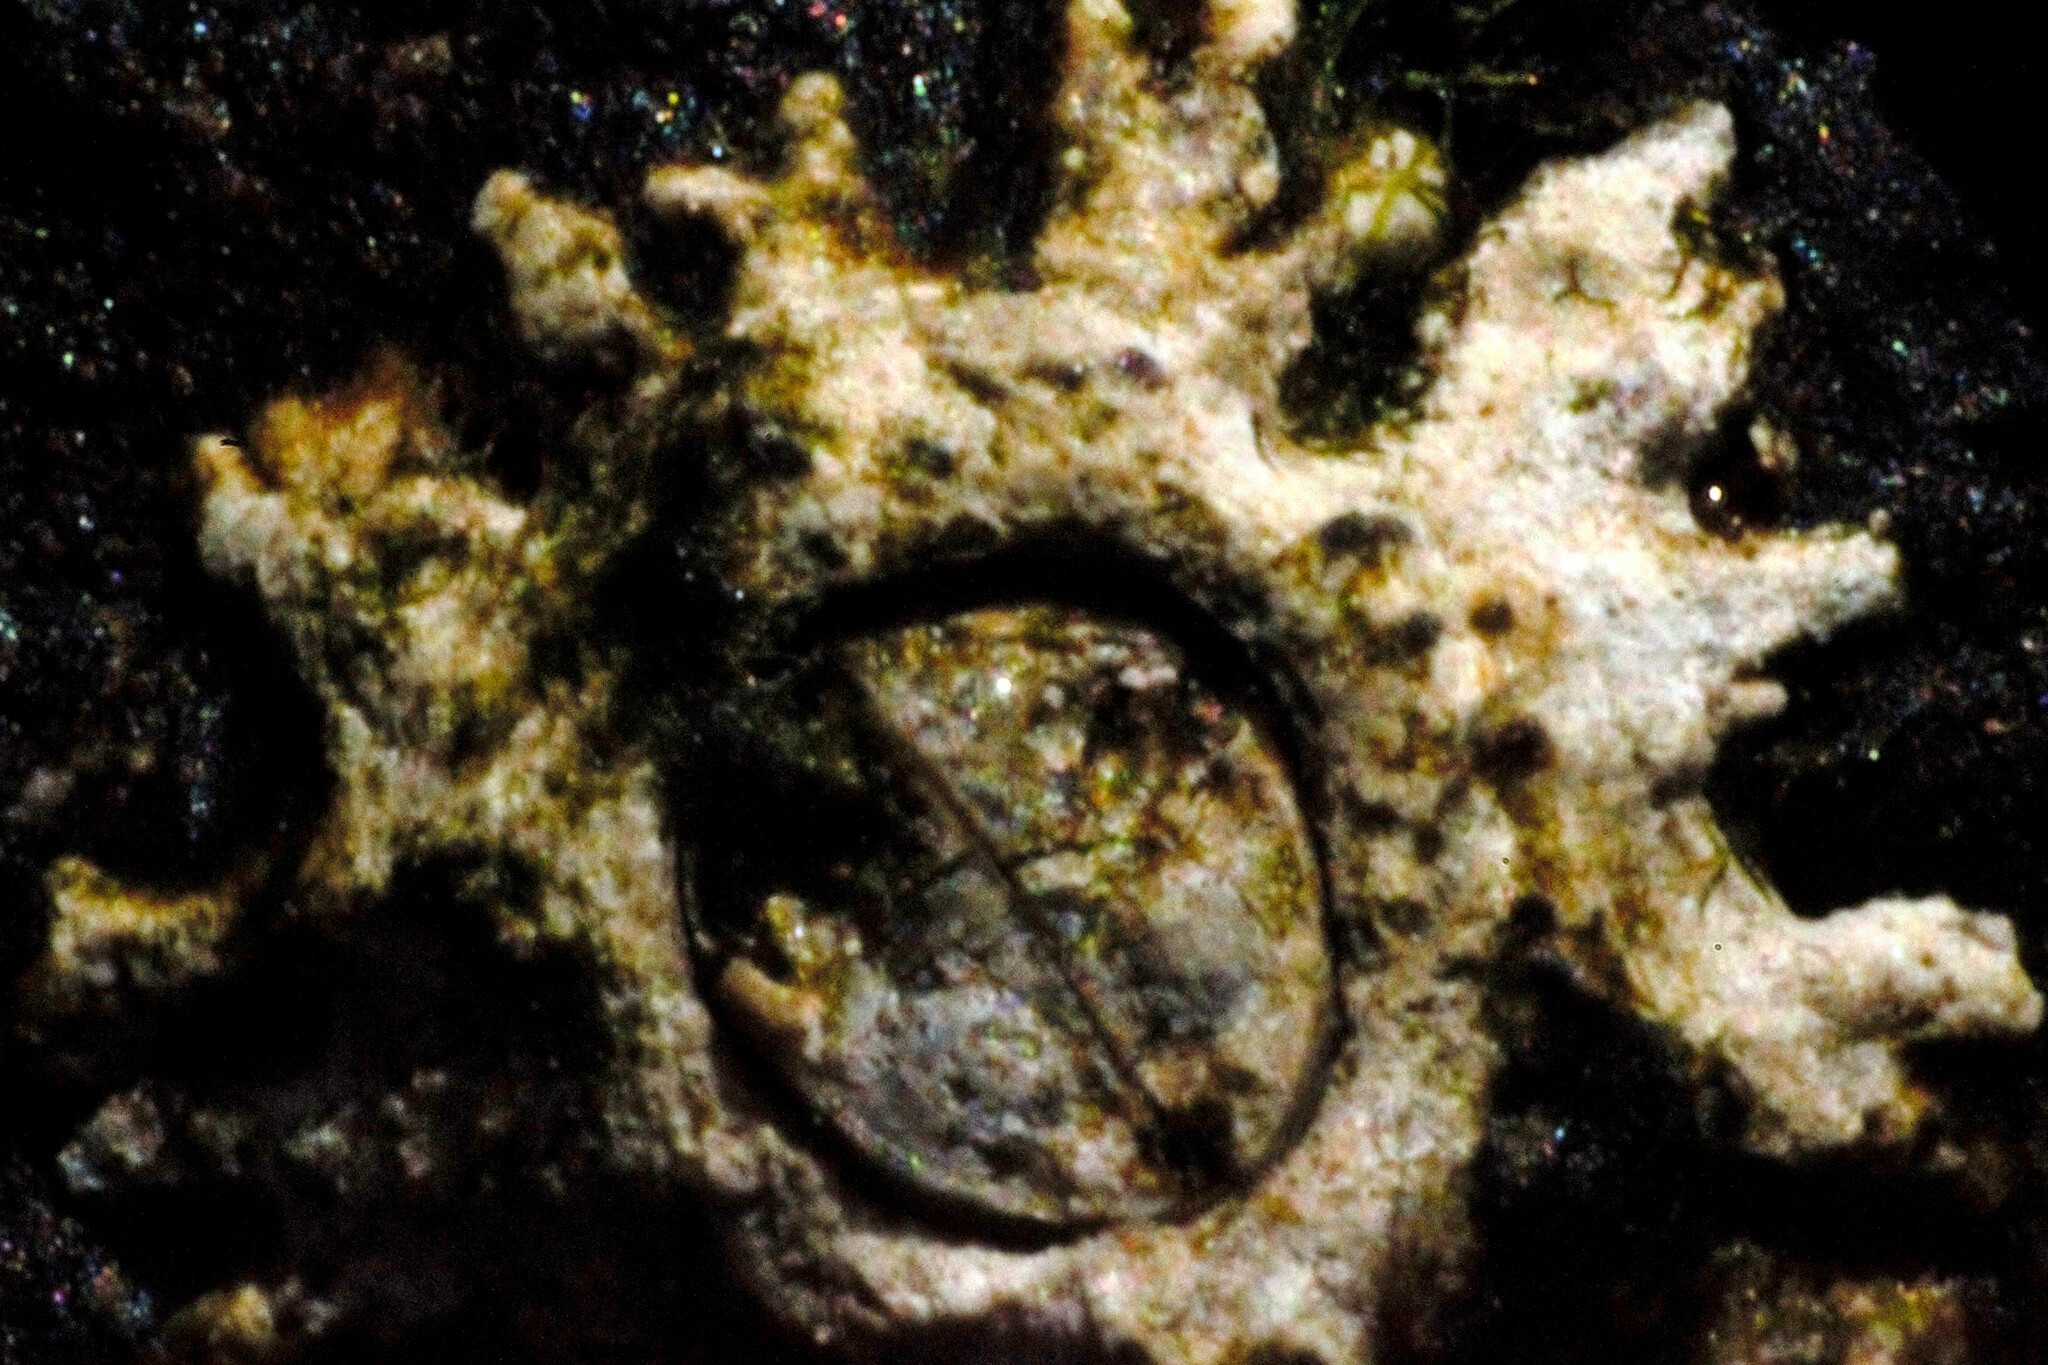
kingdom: Animalia
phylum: Arthropoda
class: Maxillopoda
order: Sessilia
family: Chthamalidae
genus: Chthamalus
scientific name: Chthamalus stellatus
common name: Poli's stellate barnacle
